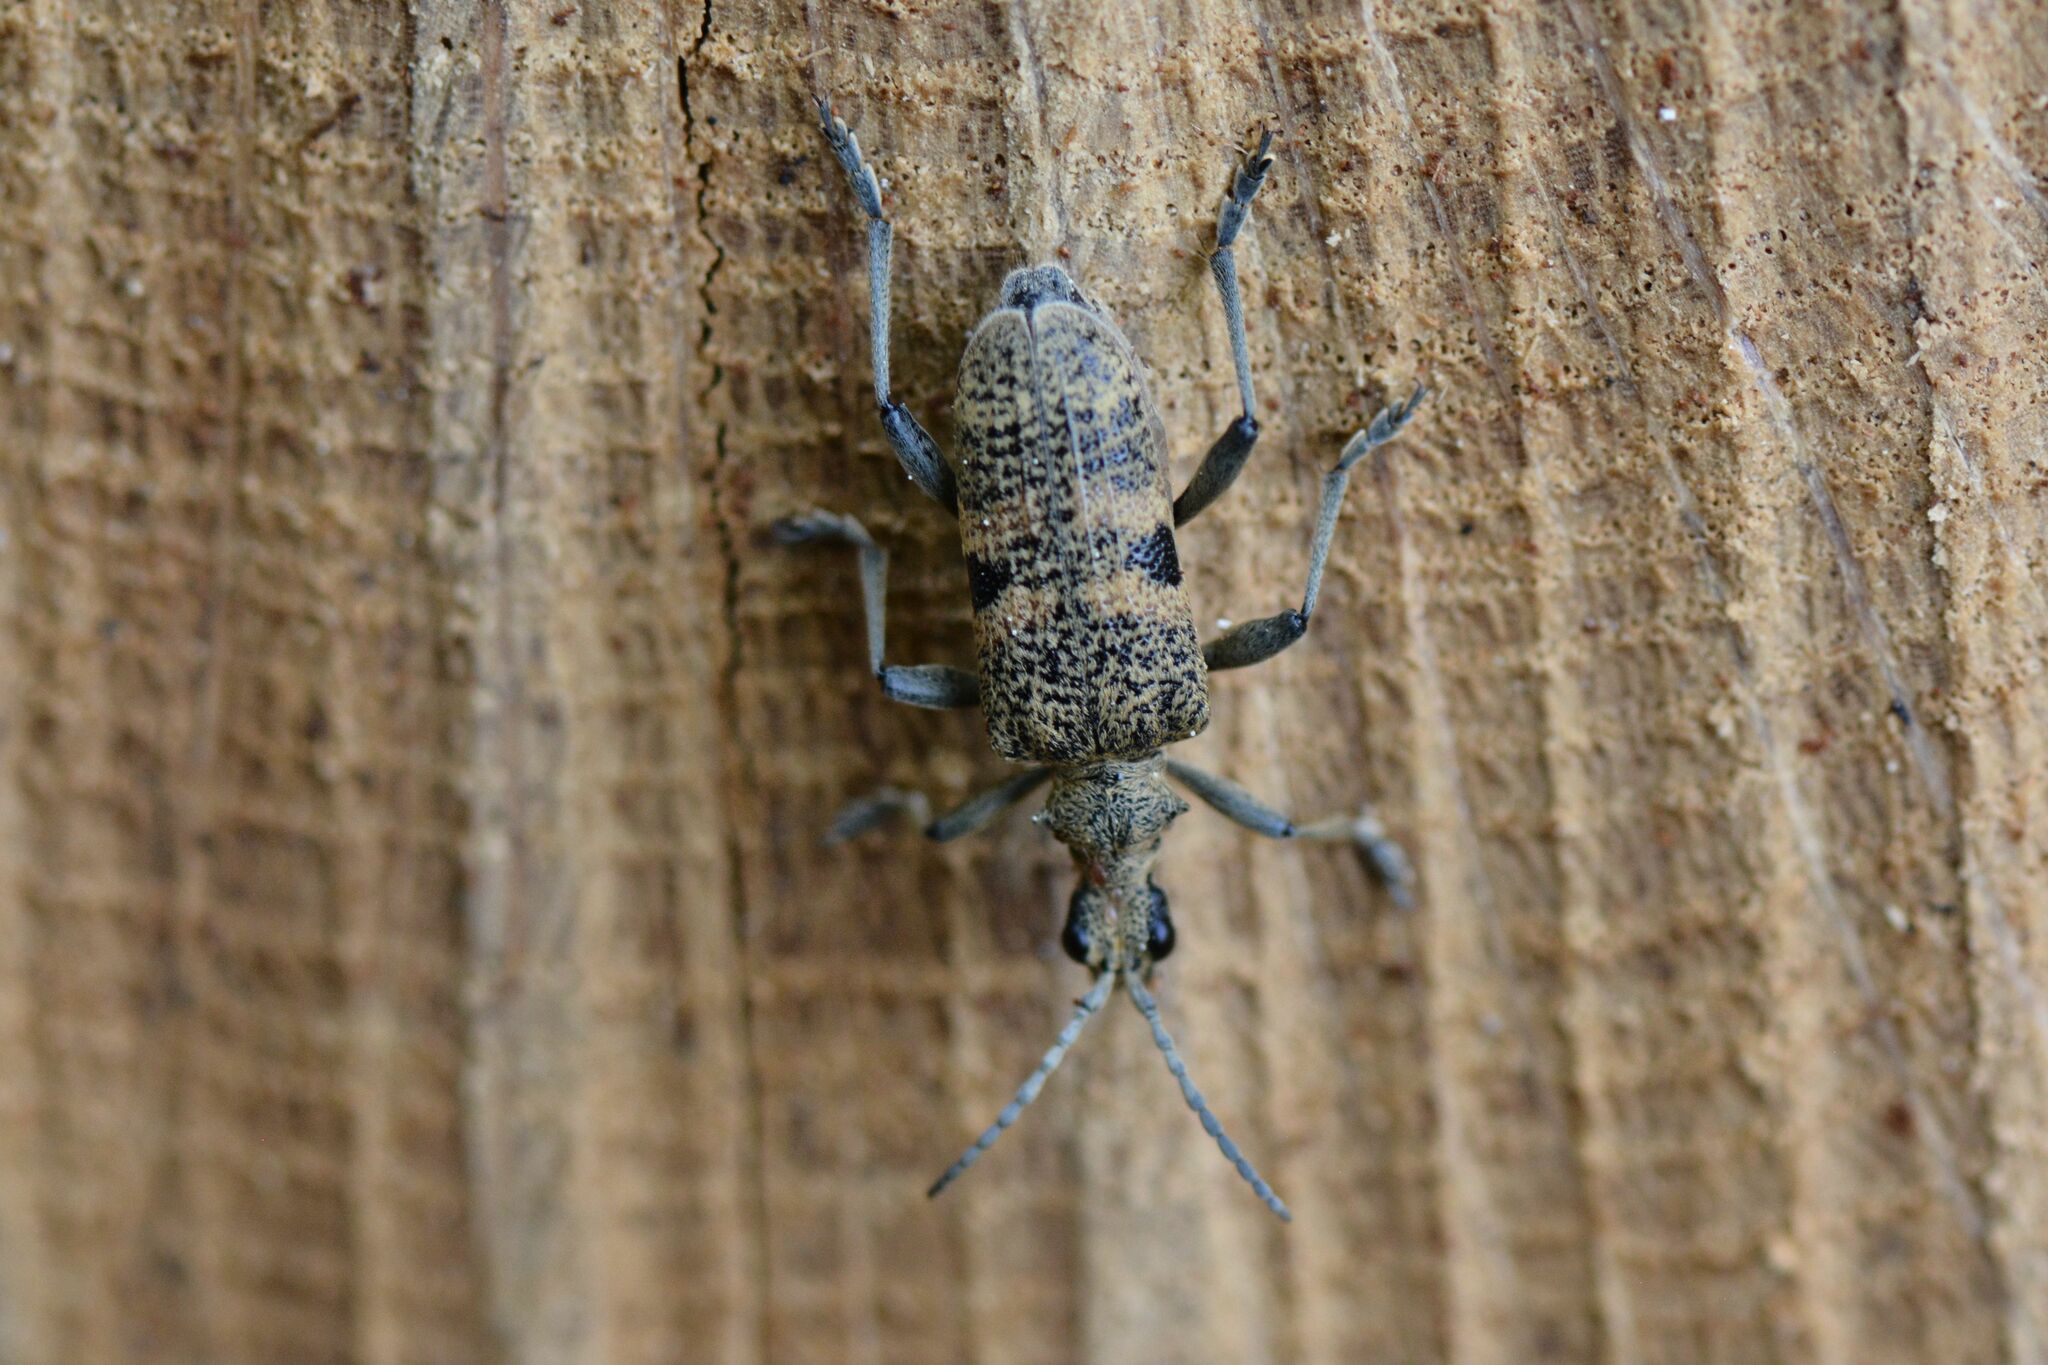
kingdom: Animalia
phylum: Arthropoda
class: Insecta
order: Coleoptera
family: Cerambycidae
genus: Rhagium
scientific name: Rhagium mordax
